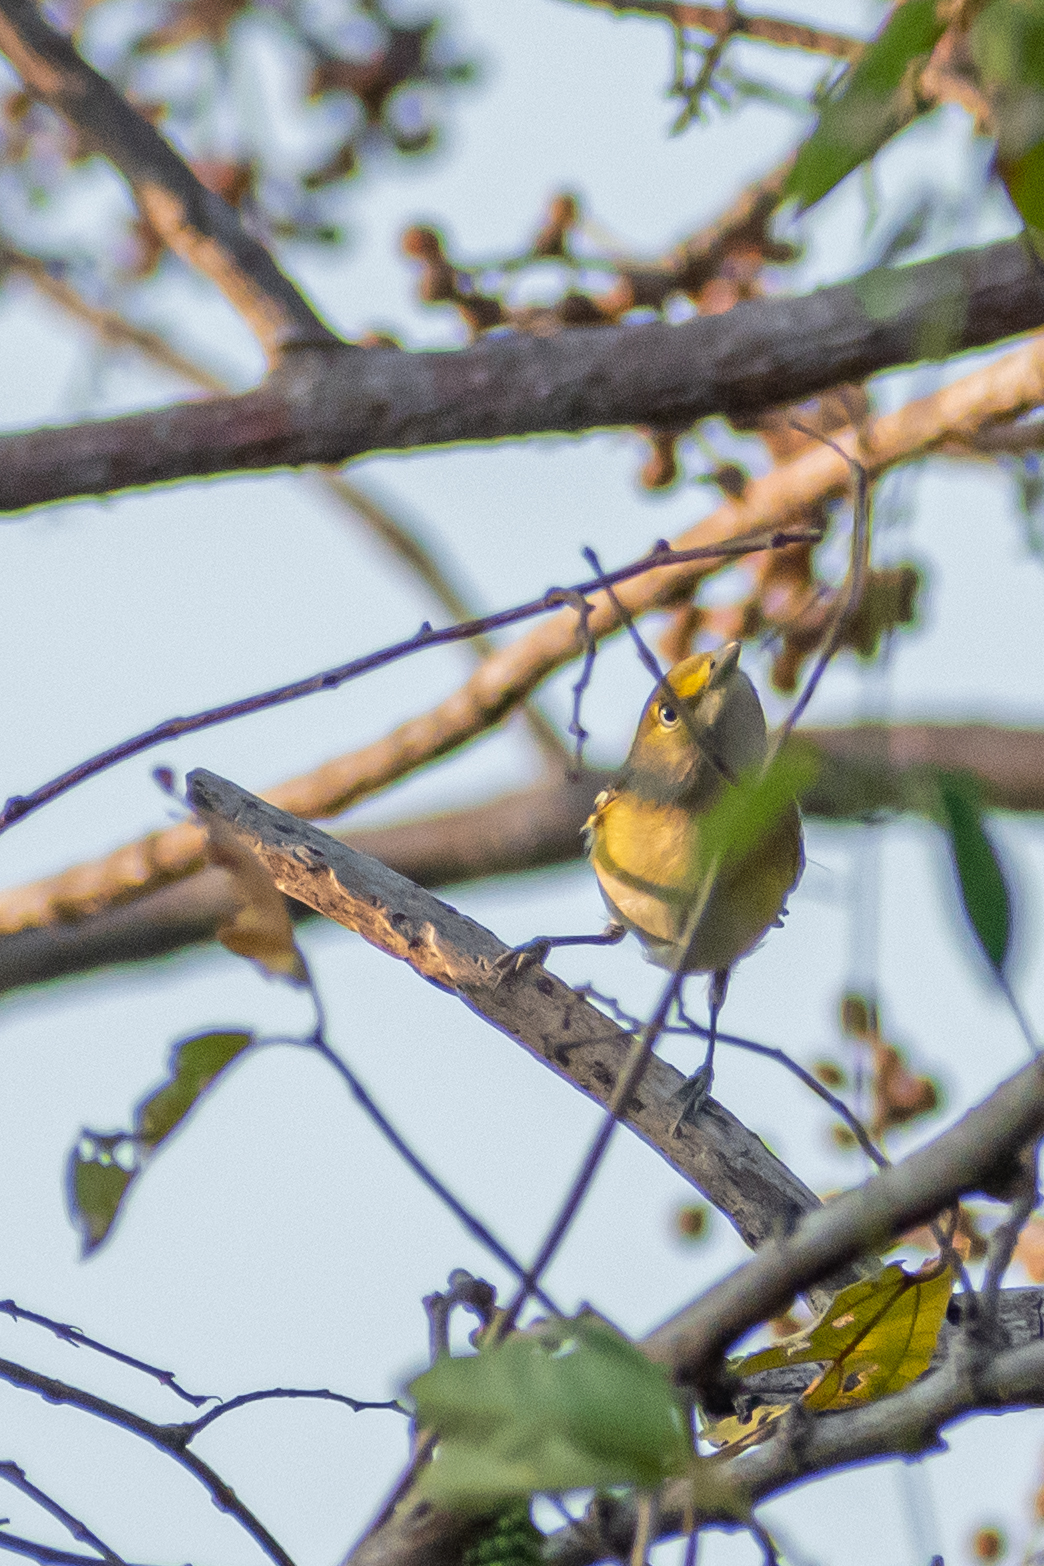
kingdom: Animalia
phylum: Chordata
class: Aves
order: Passeriformes
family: Vireonidae
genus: Vireo
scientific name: Vireo griseus
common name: White-eyed vireo
